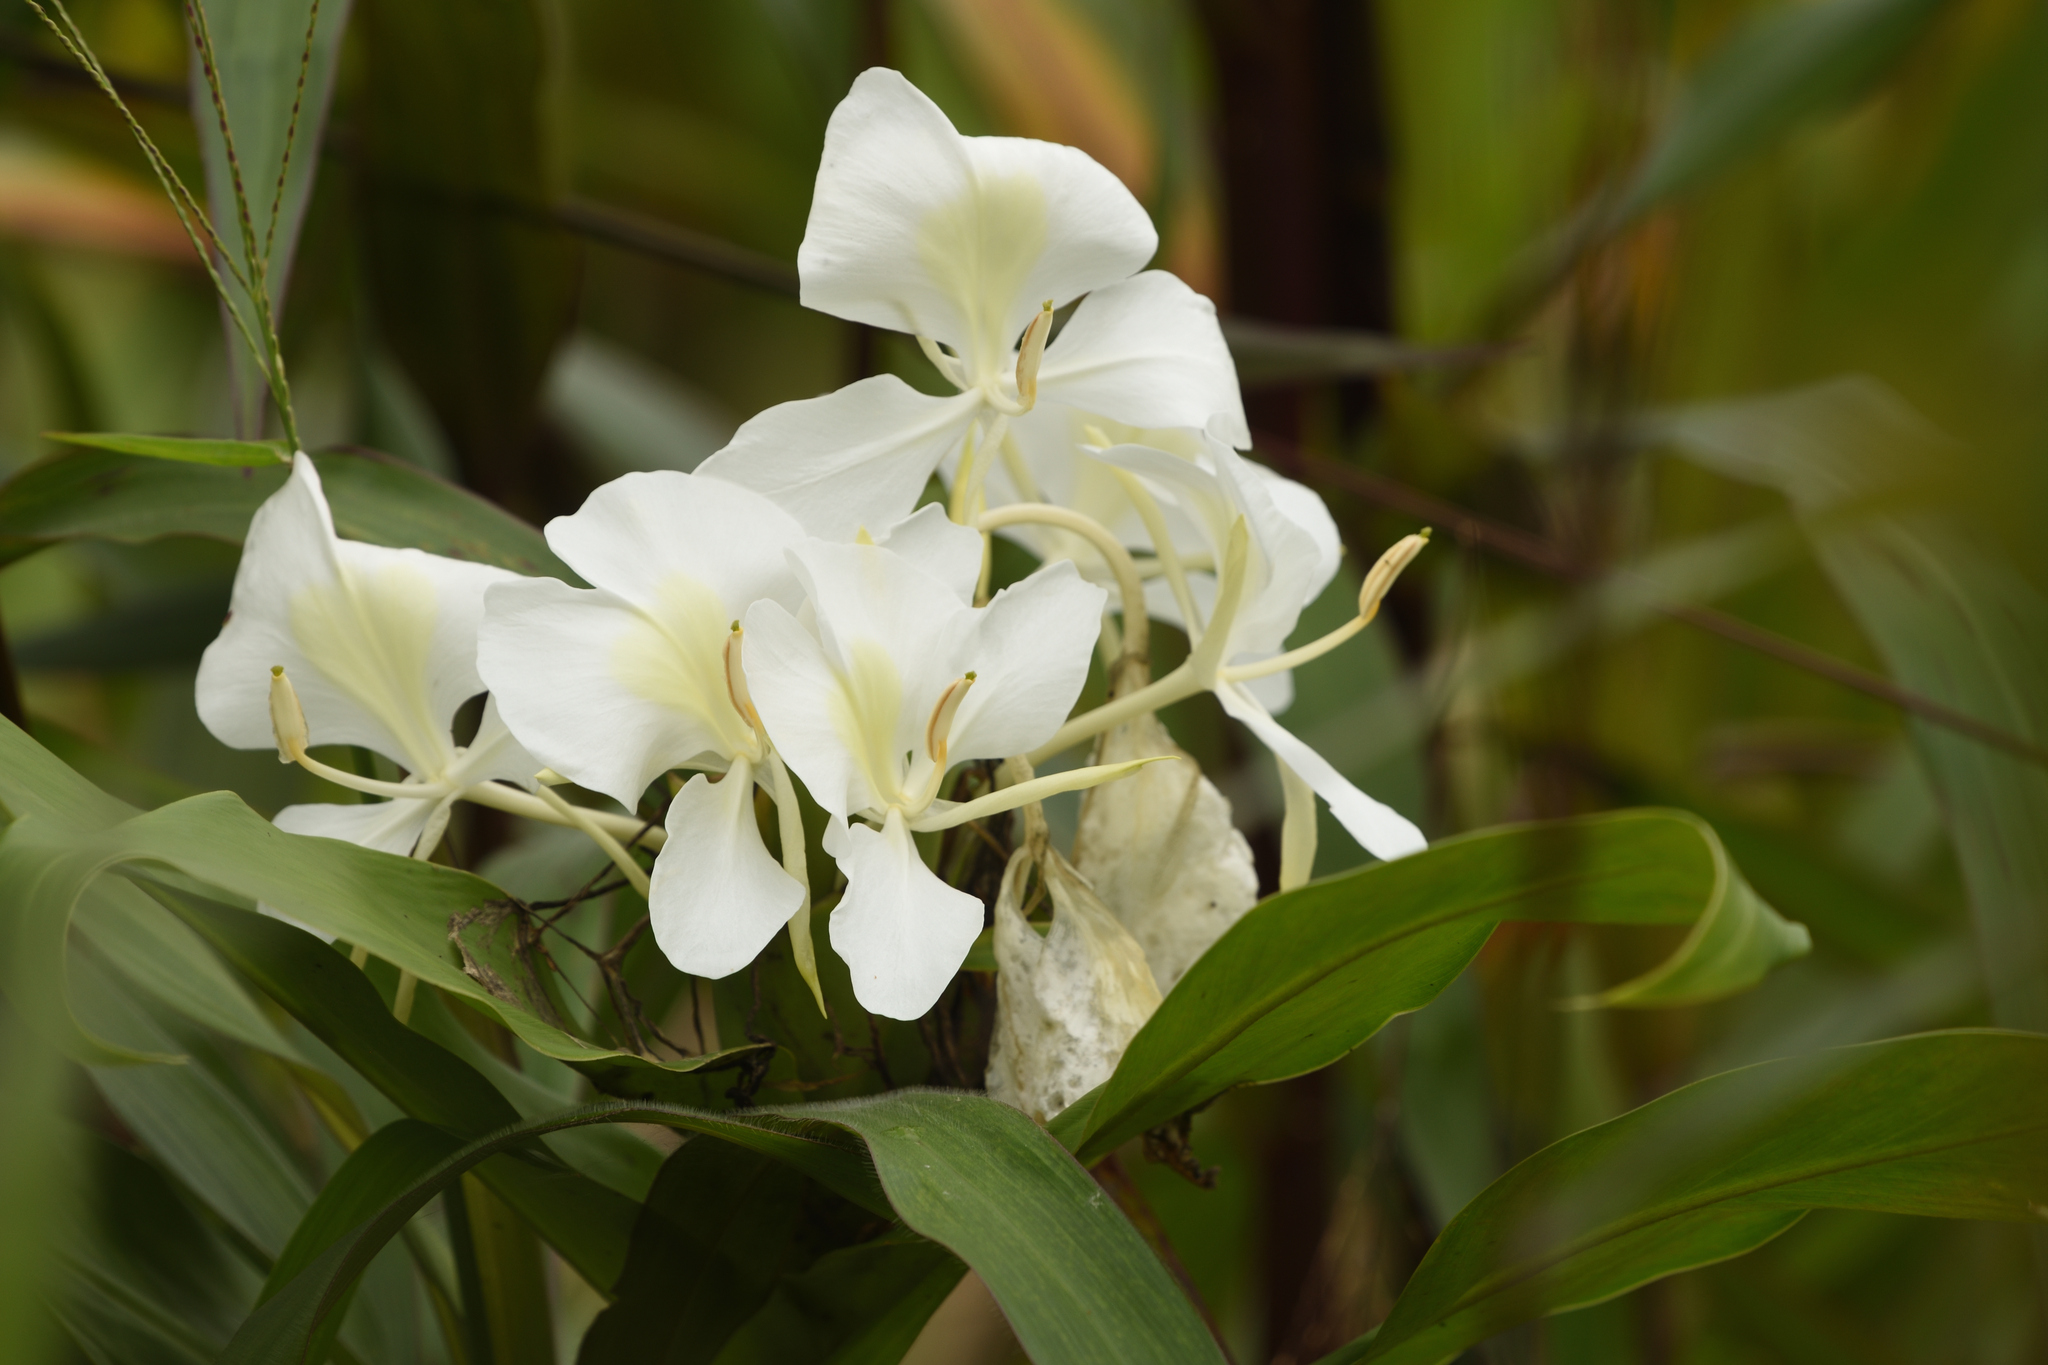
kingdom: Plantae
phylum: Tracheophyta
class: Liliopsida
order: Zingiberales
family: Zingiberaceae
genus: Hedychium
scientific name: Hedychium coronarium
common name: White garland-lily
